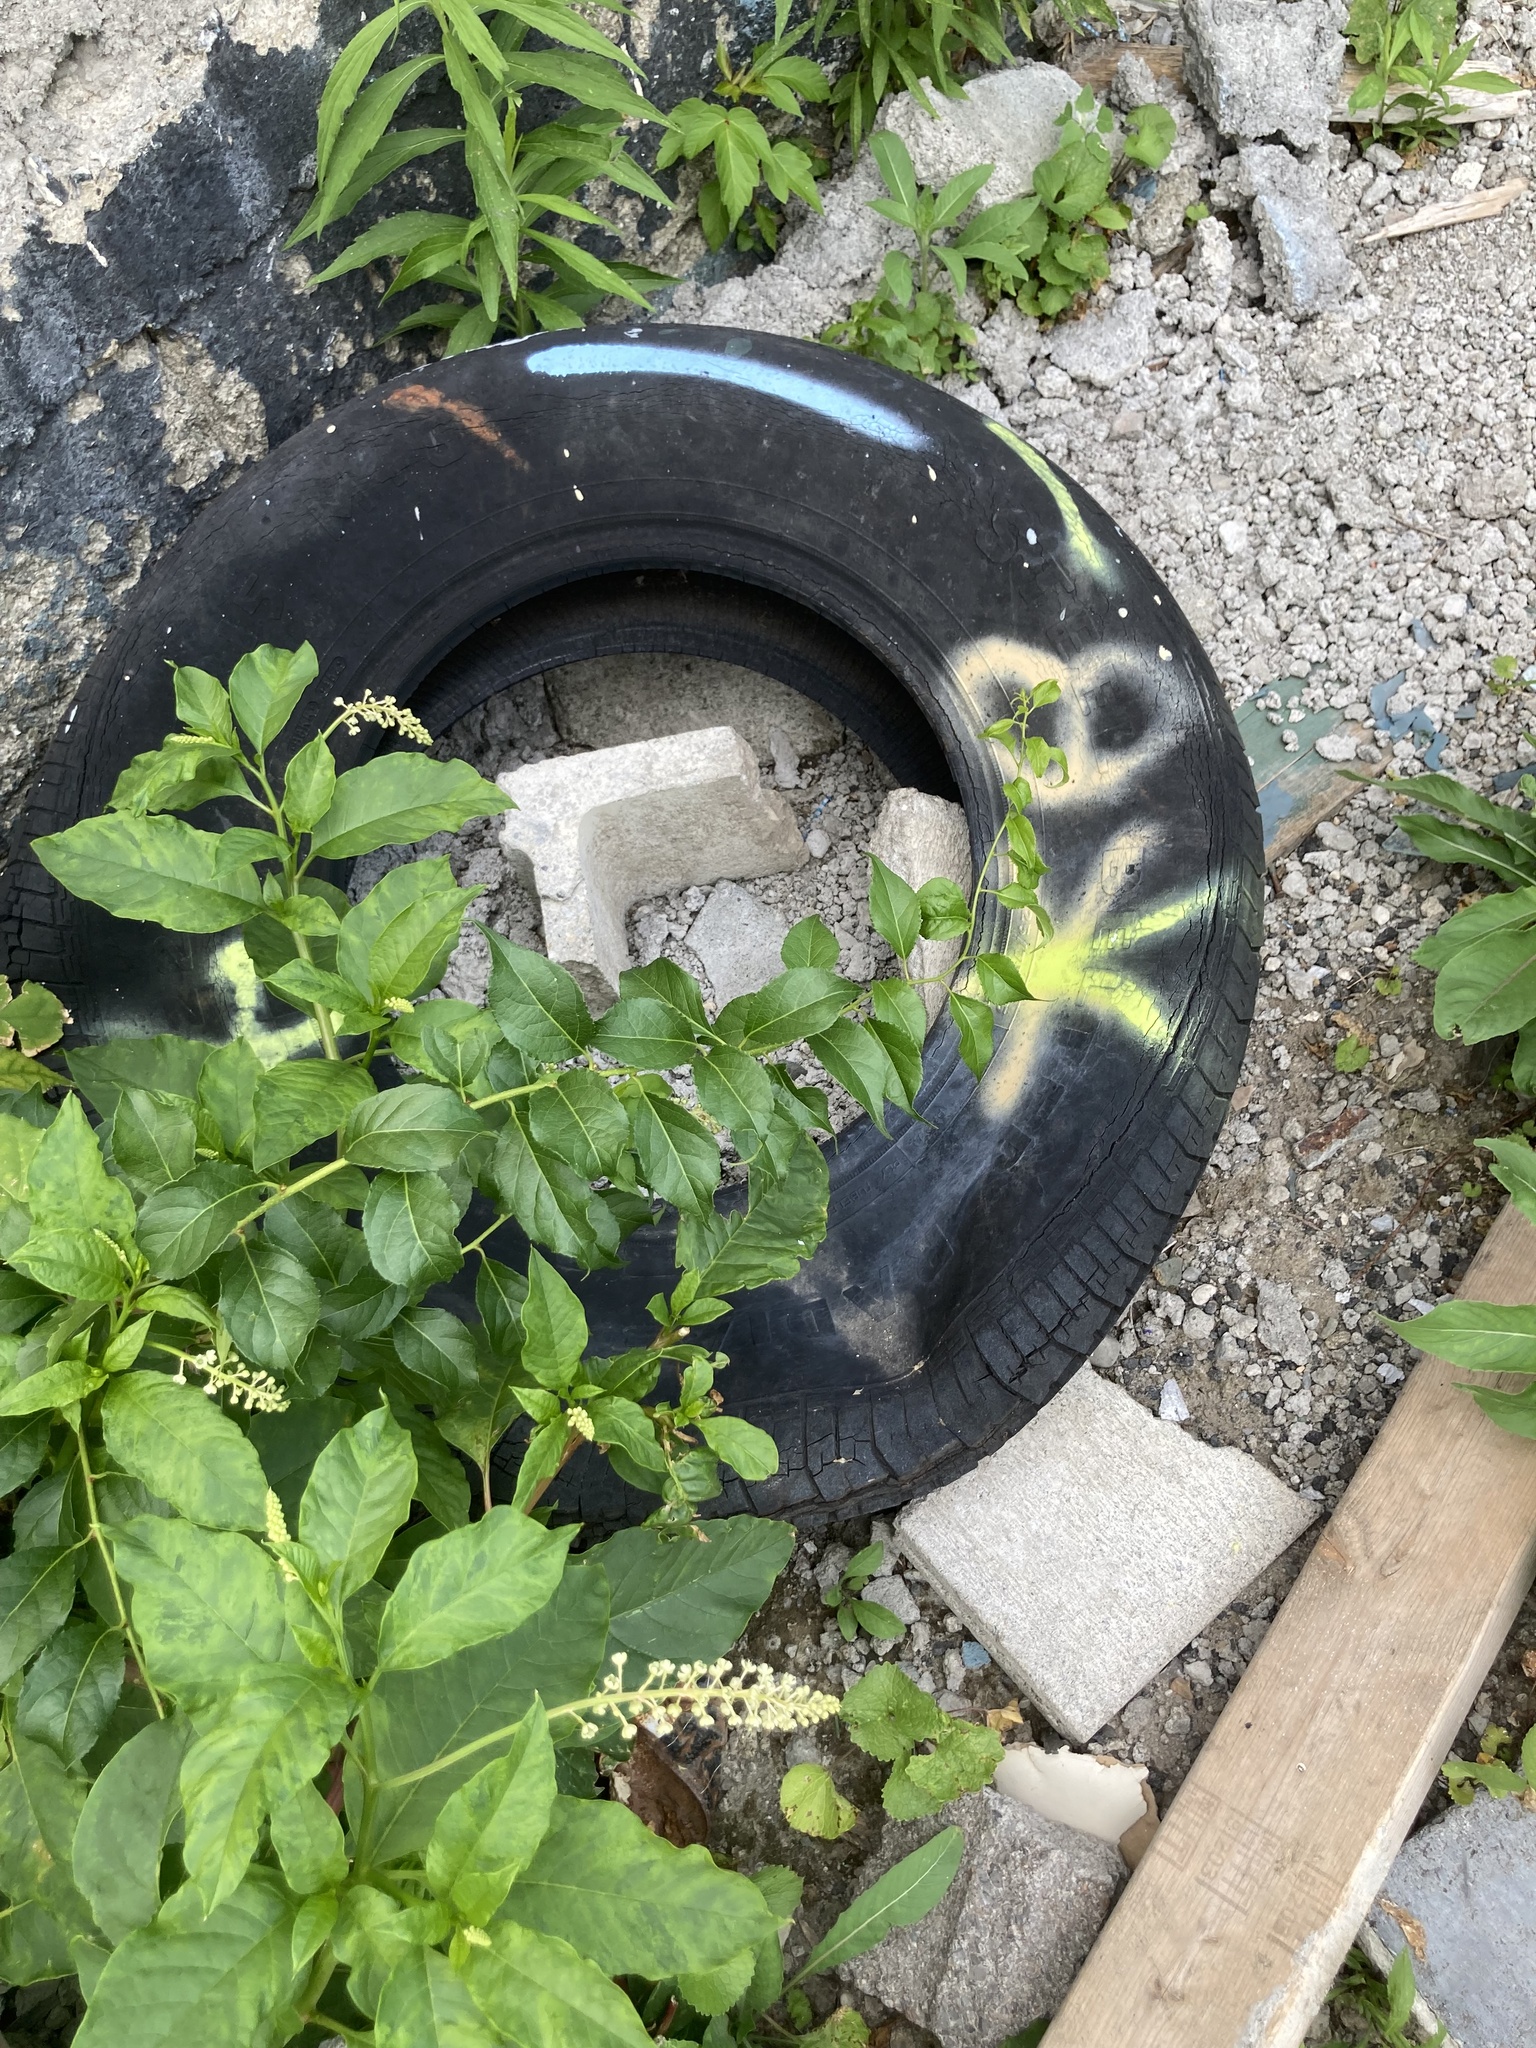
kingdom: Plantae
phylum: Tracheophyta
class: Magnoliopsida
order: Caryophyllales
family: Phytolaccaceae
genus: Phytolacca
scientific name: Phytolacca americana
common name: American pokeweed
